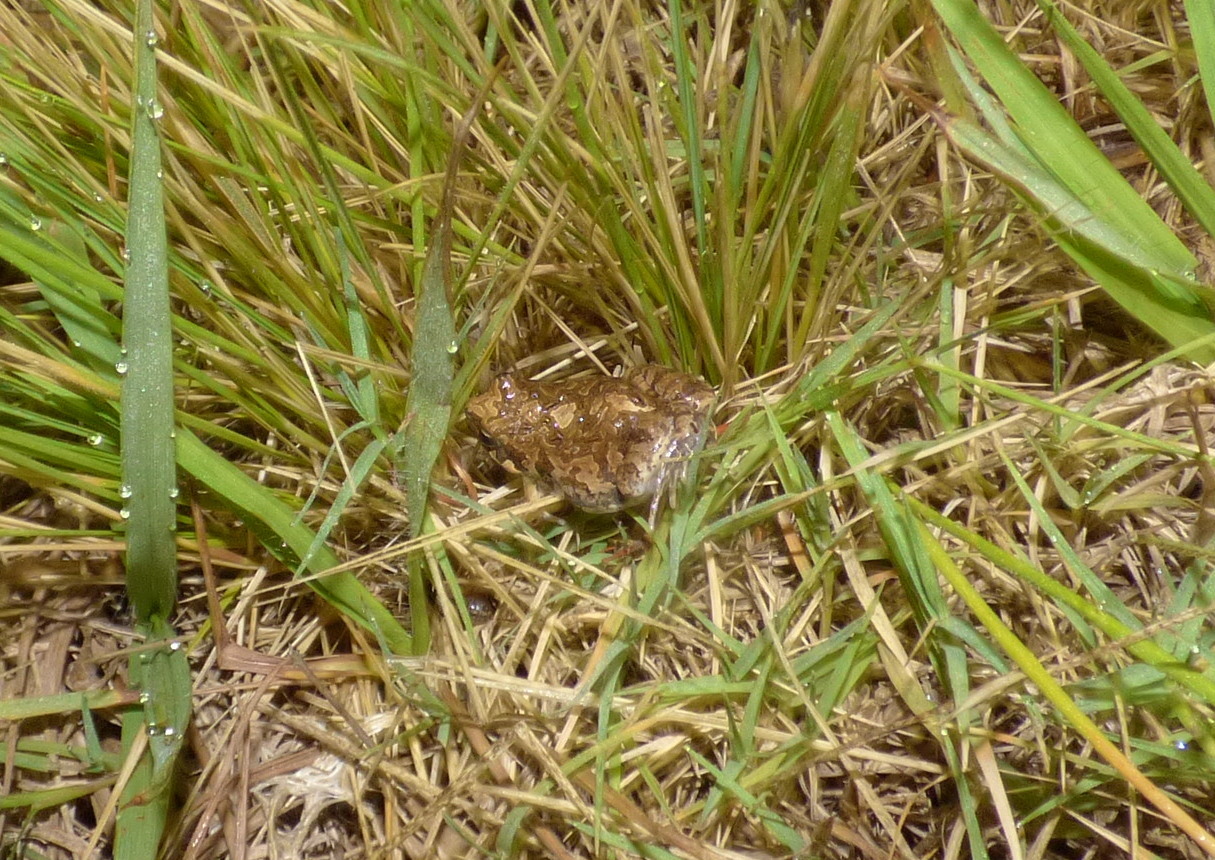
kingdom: Animalia
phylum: Chordata
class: Amphibia
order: Anura
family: Leptodactylidae
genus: Physalaemus
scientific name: Physalaemus biligonigerus
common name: Weeping frog
